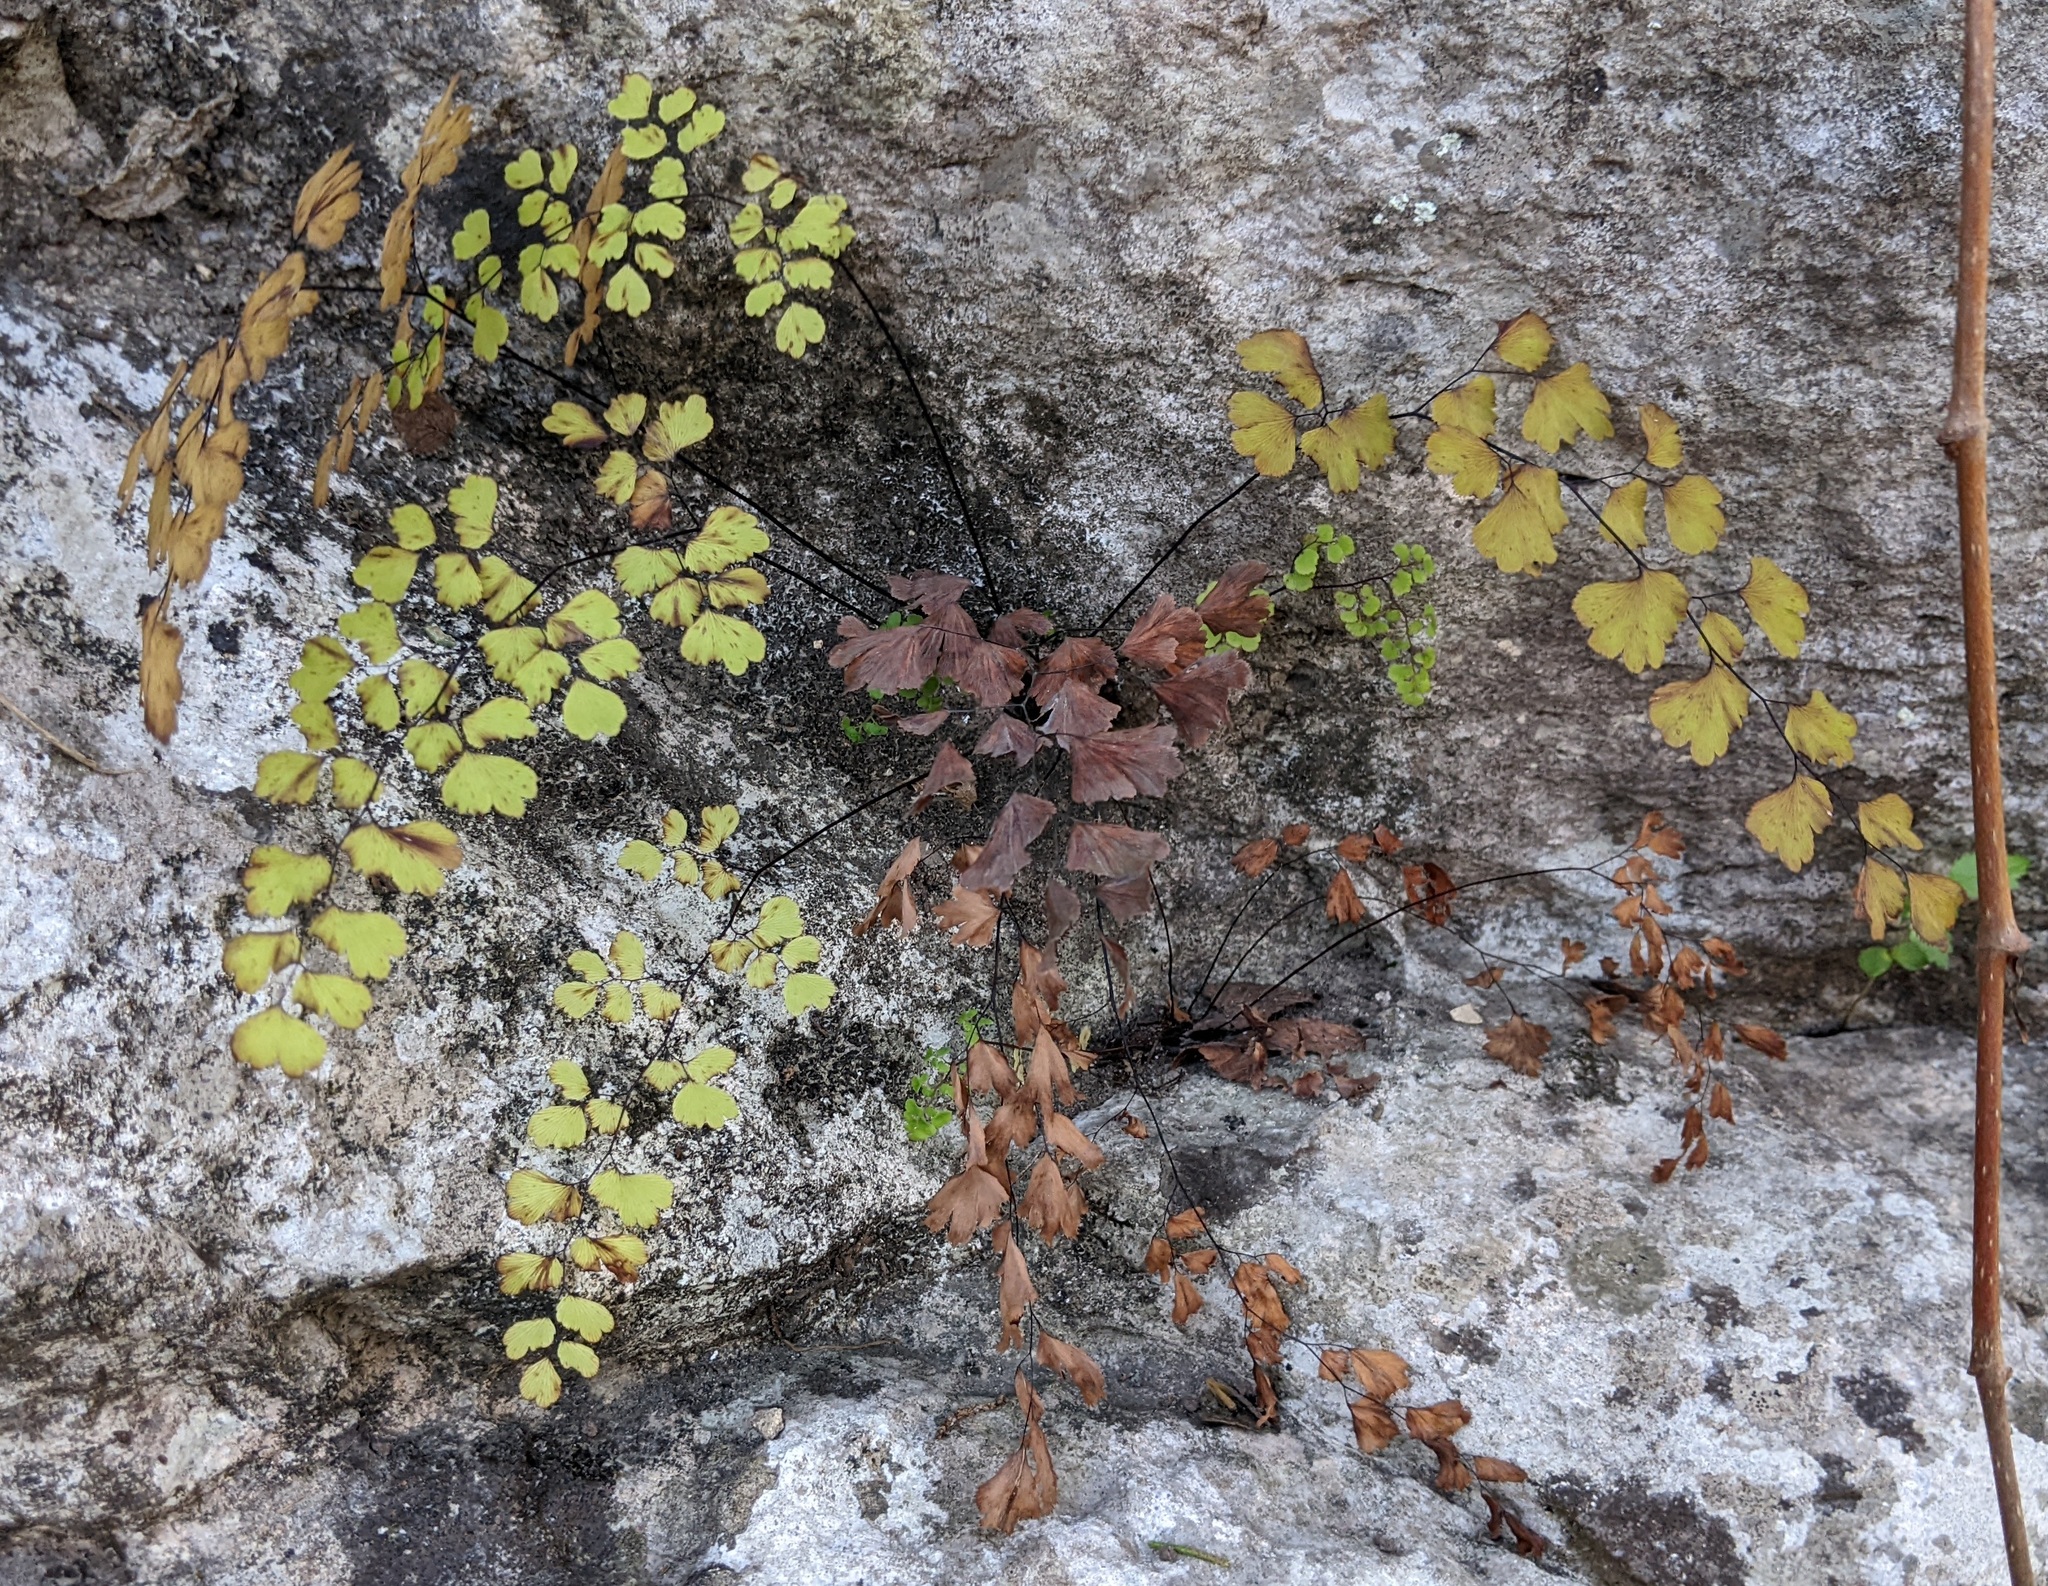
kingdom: Plantae
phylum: Tracheophyta
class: Polypodiopsida
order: Polypodiales
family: Pteridaceae
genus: Adiantum
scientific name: Adiantum capillus-veneris
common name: Maidenhair fern
